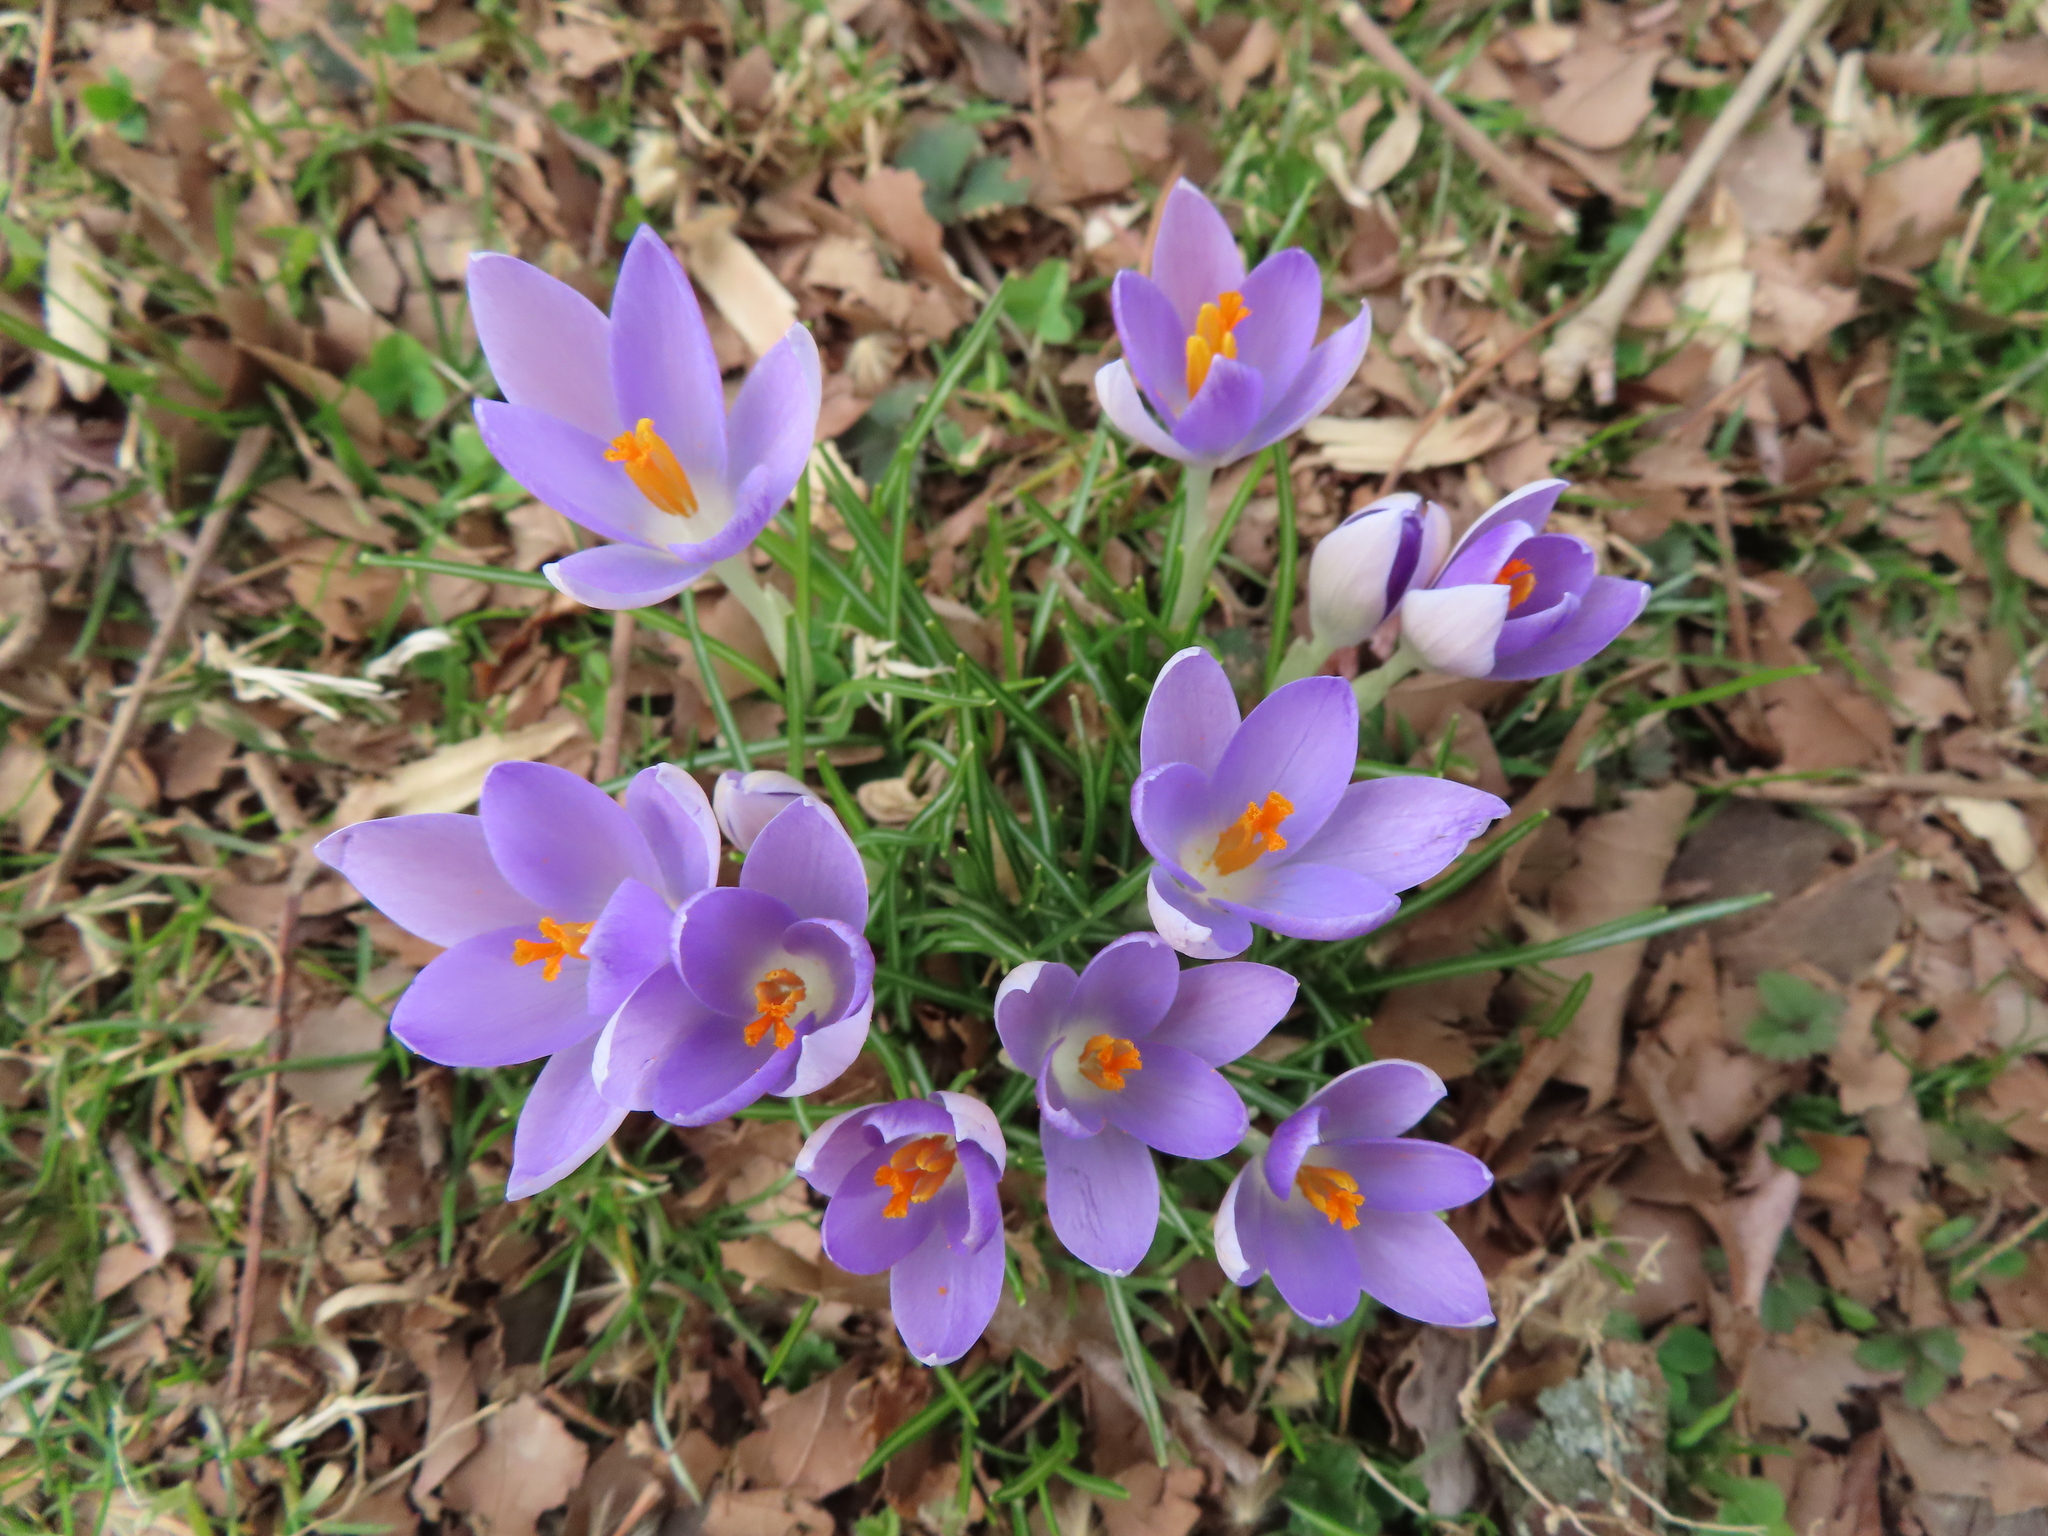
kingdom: Plantae
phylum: Tracheophyta
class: Liliopsida
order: Asparagales
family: Iridaceae
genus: Crocus
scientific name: Crocus tommasinianus
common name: Early crocus
